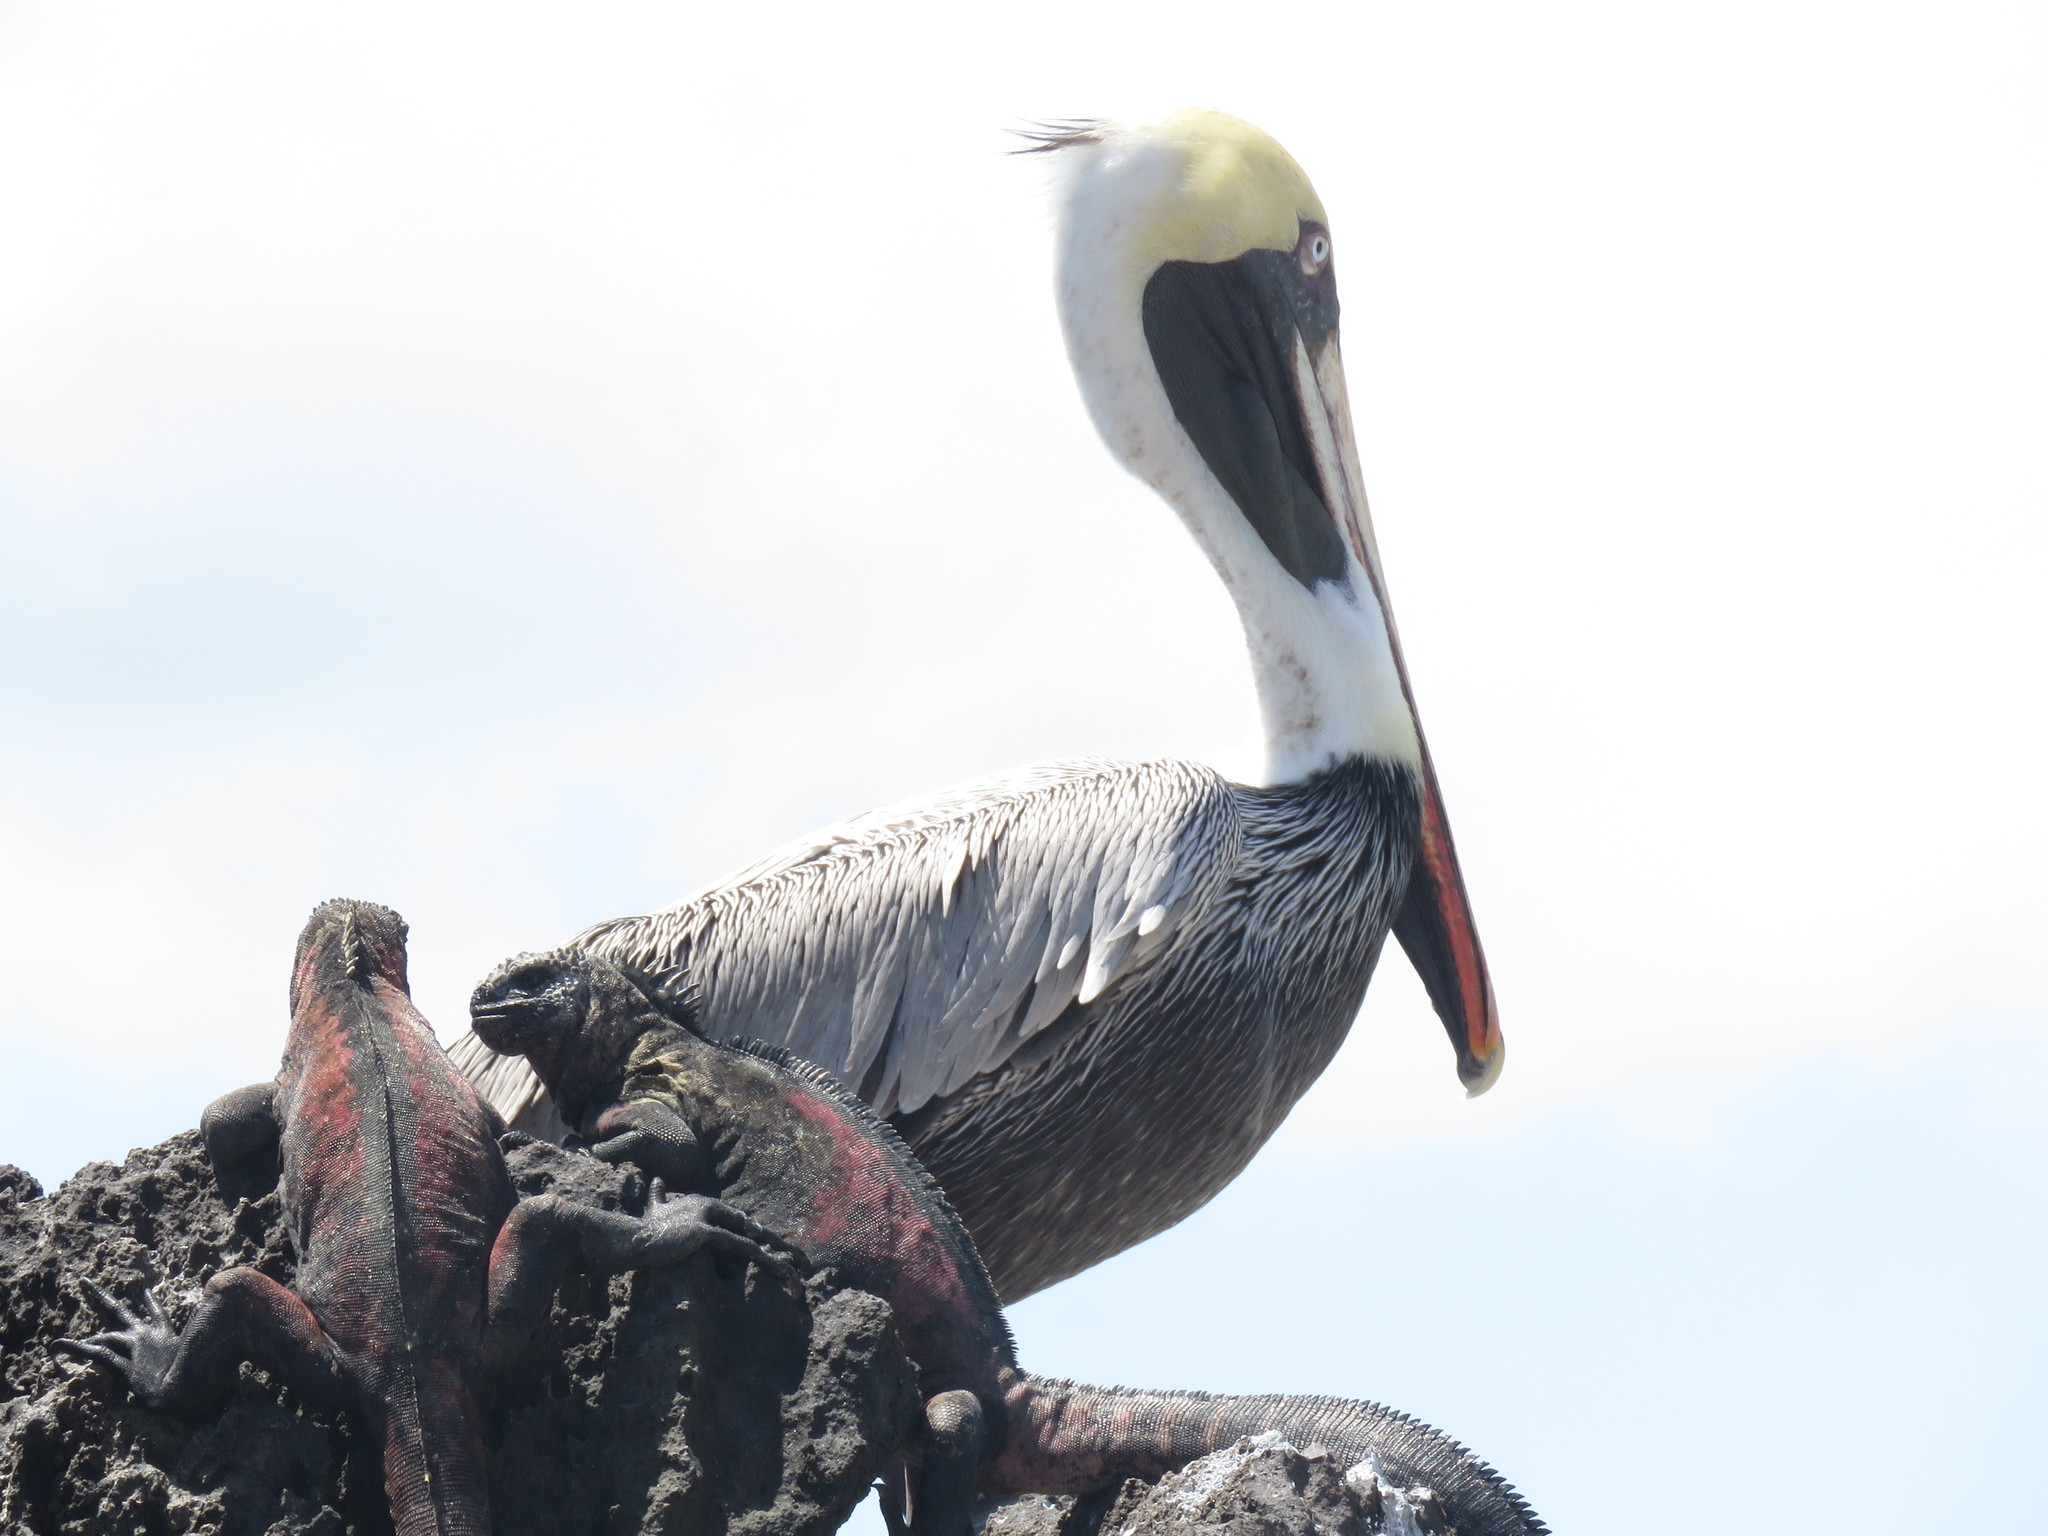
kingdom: Animalia
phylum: Chordata
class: Squamata
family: Iguanidae
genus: Amblyrhynchus
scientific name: Amblyrhynchus cristatus
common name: Marine iguana
